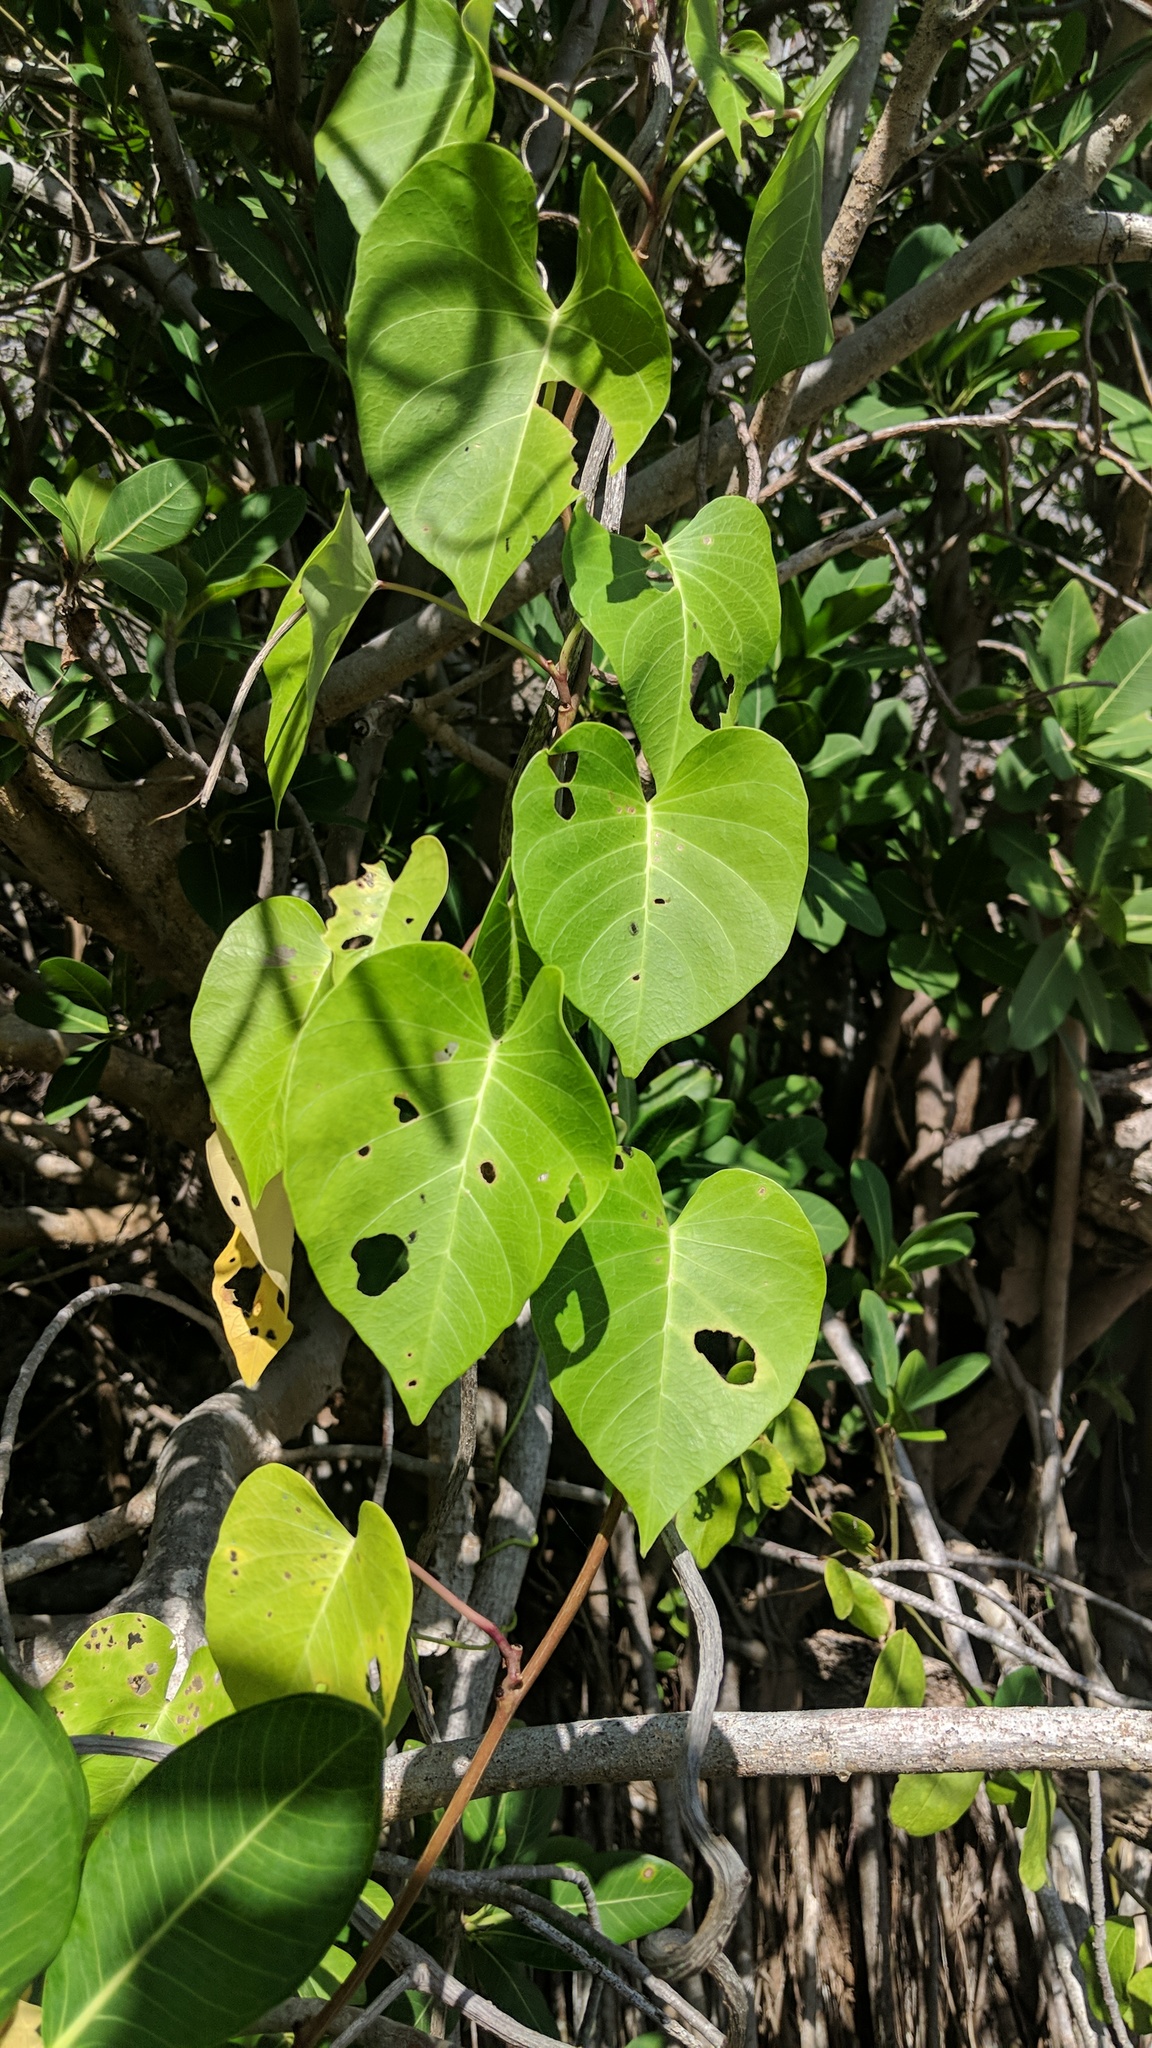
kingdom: Plantae
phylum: Tracheophyta
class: Magnoliopsida
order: Solanales
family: Convolvulaceae
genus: Ipomoea
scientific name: Ipomoea violacea
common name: Beach moonflower
